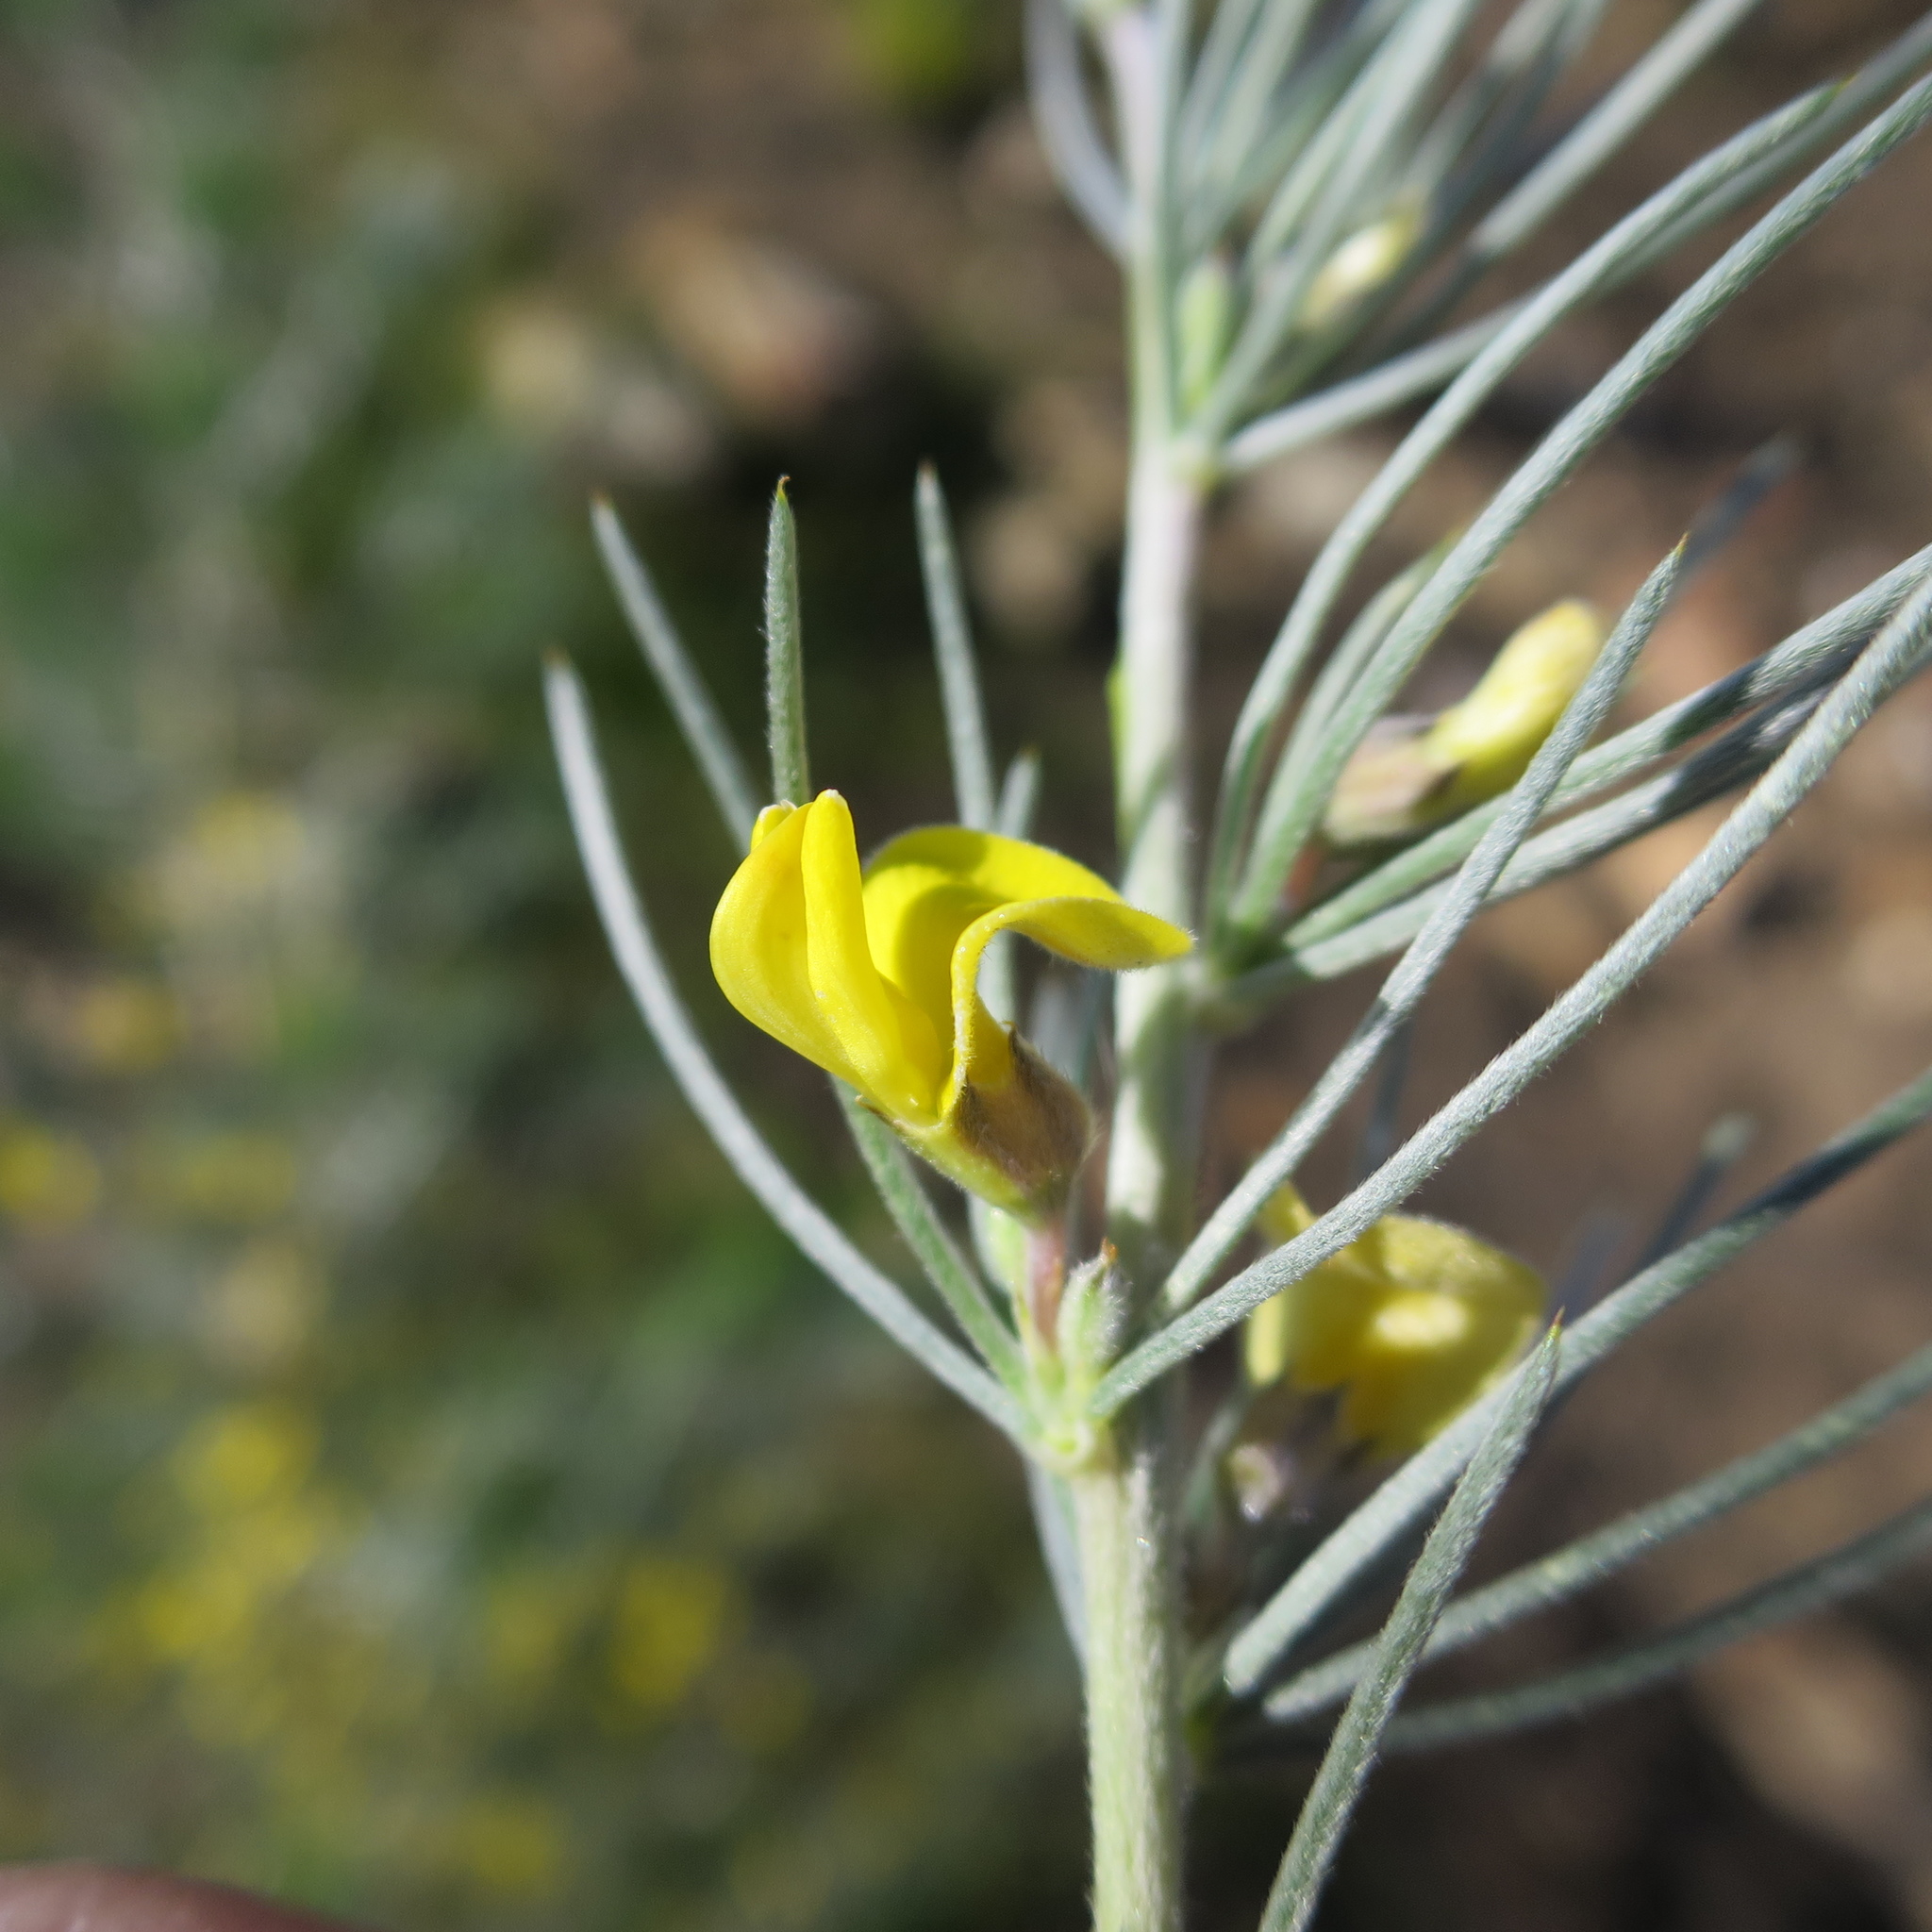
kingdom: Plantae
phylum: Tracheophyta
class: Magnoliopsida
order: Fabales
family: Fabaceae
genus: Aspalathus
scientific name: Aspalathus florifera
